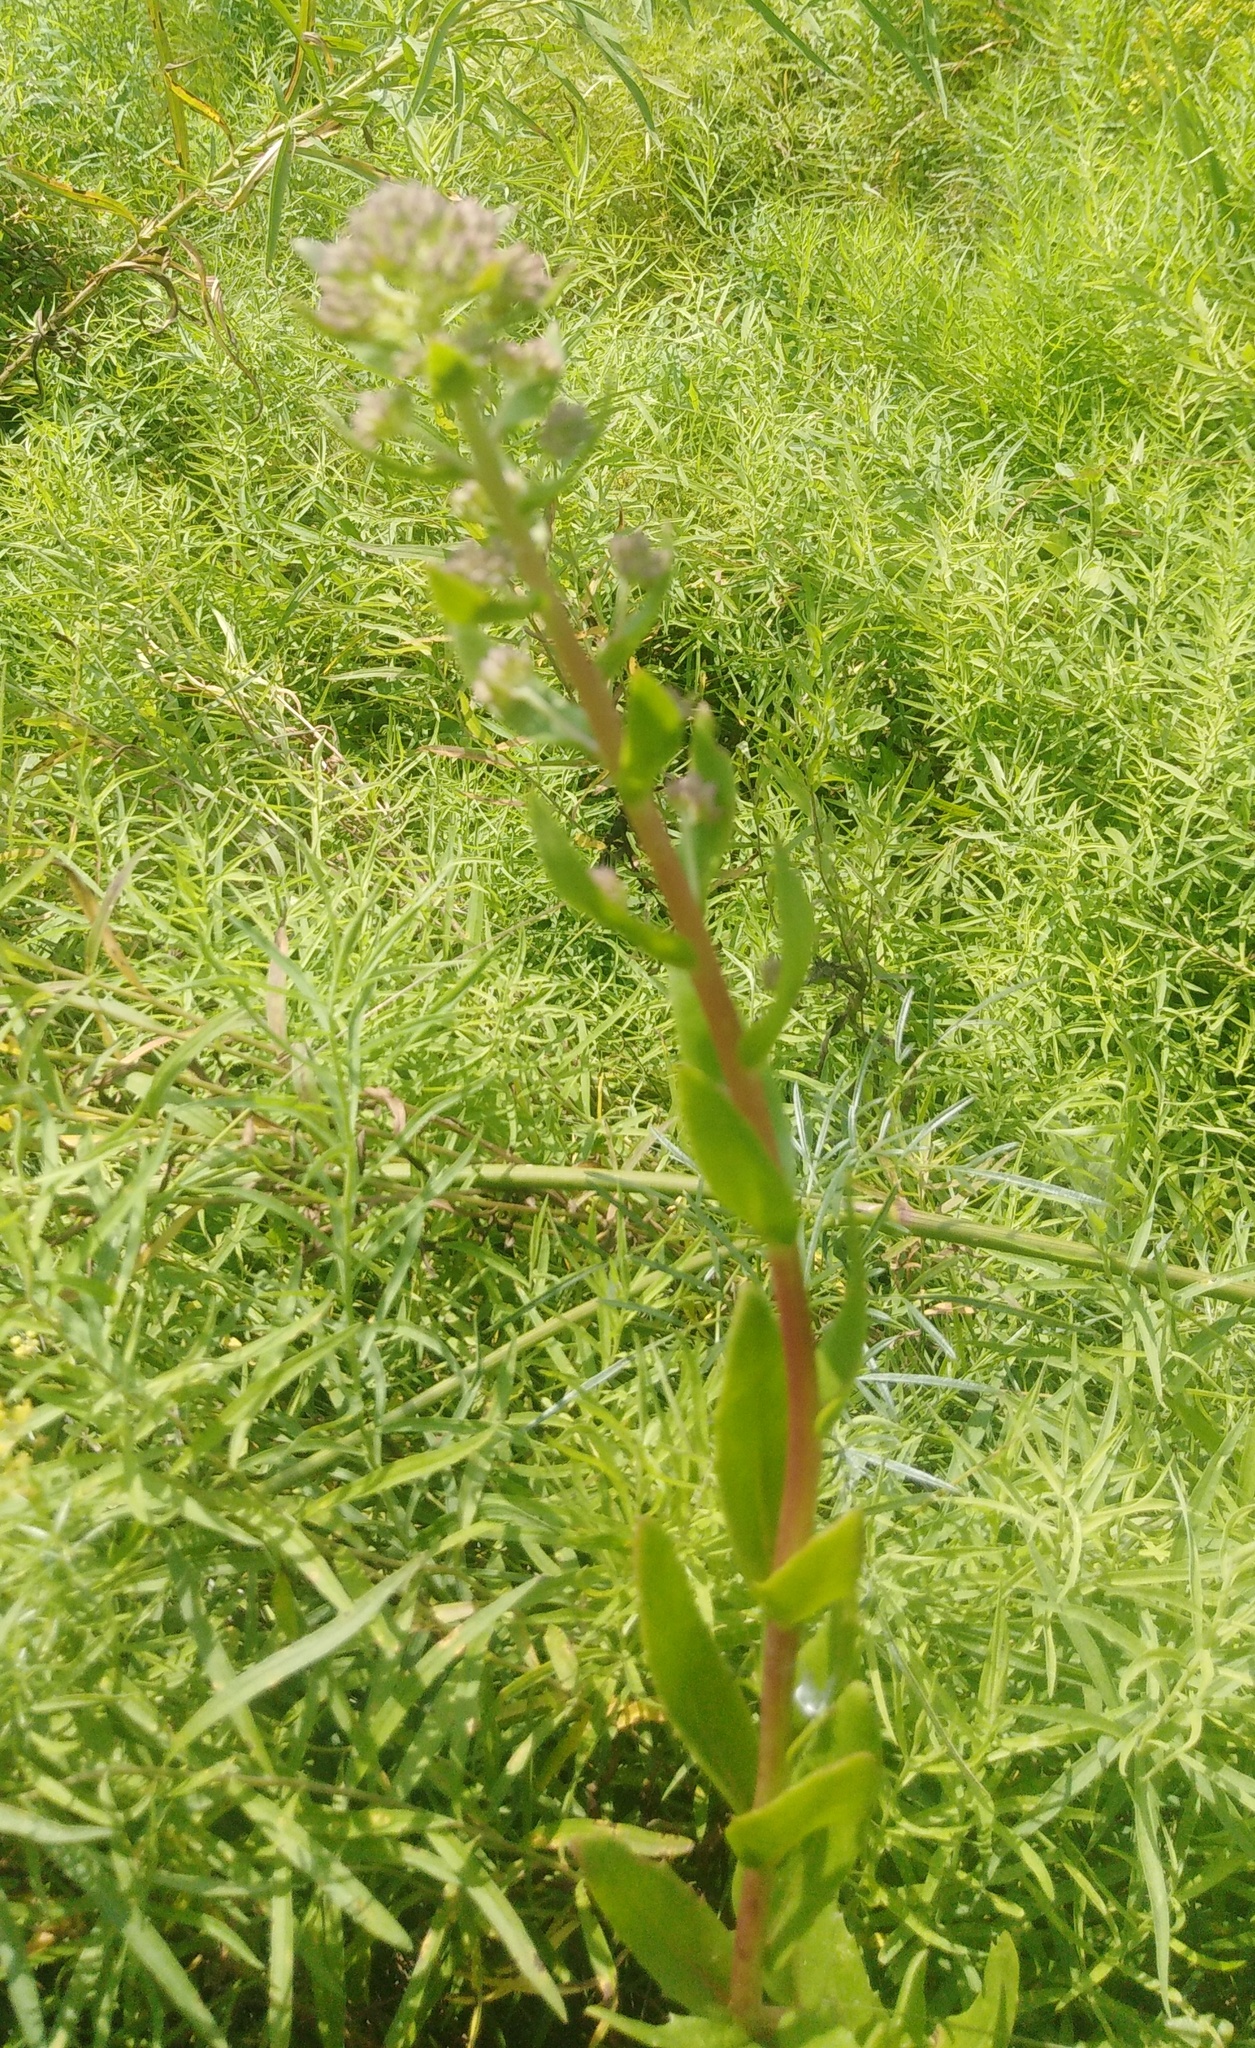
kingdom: Plantae
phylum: Tracheophyta
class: Magnoliopsida
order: Saxifragales
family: Crassulaceae
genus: Hylotelephium
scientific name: Hylotelephium telephium
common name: Live-forever
